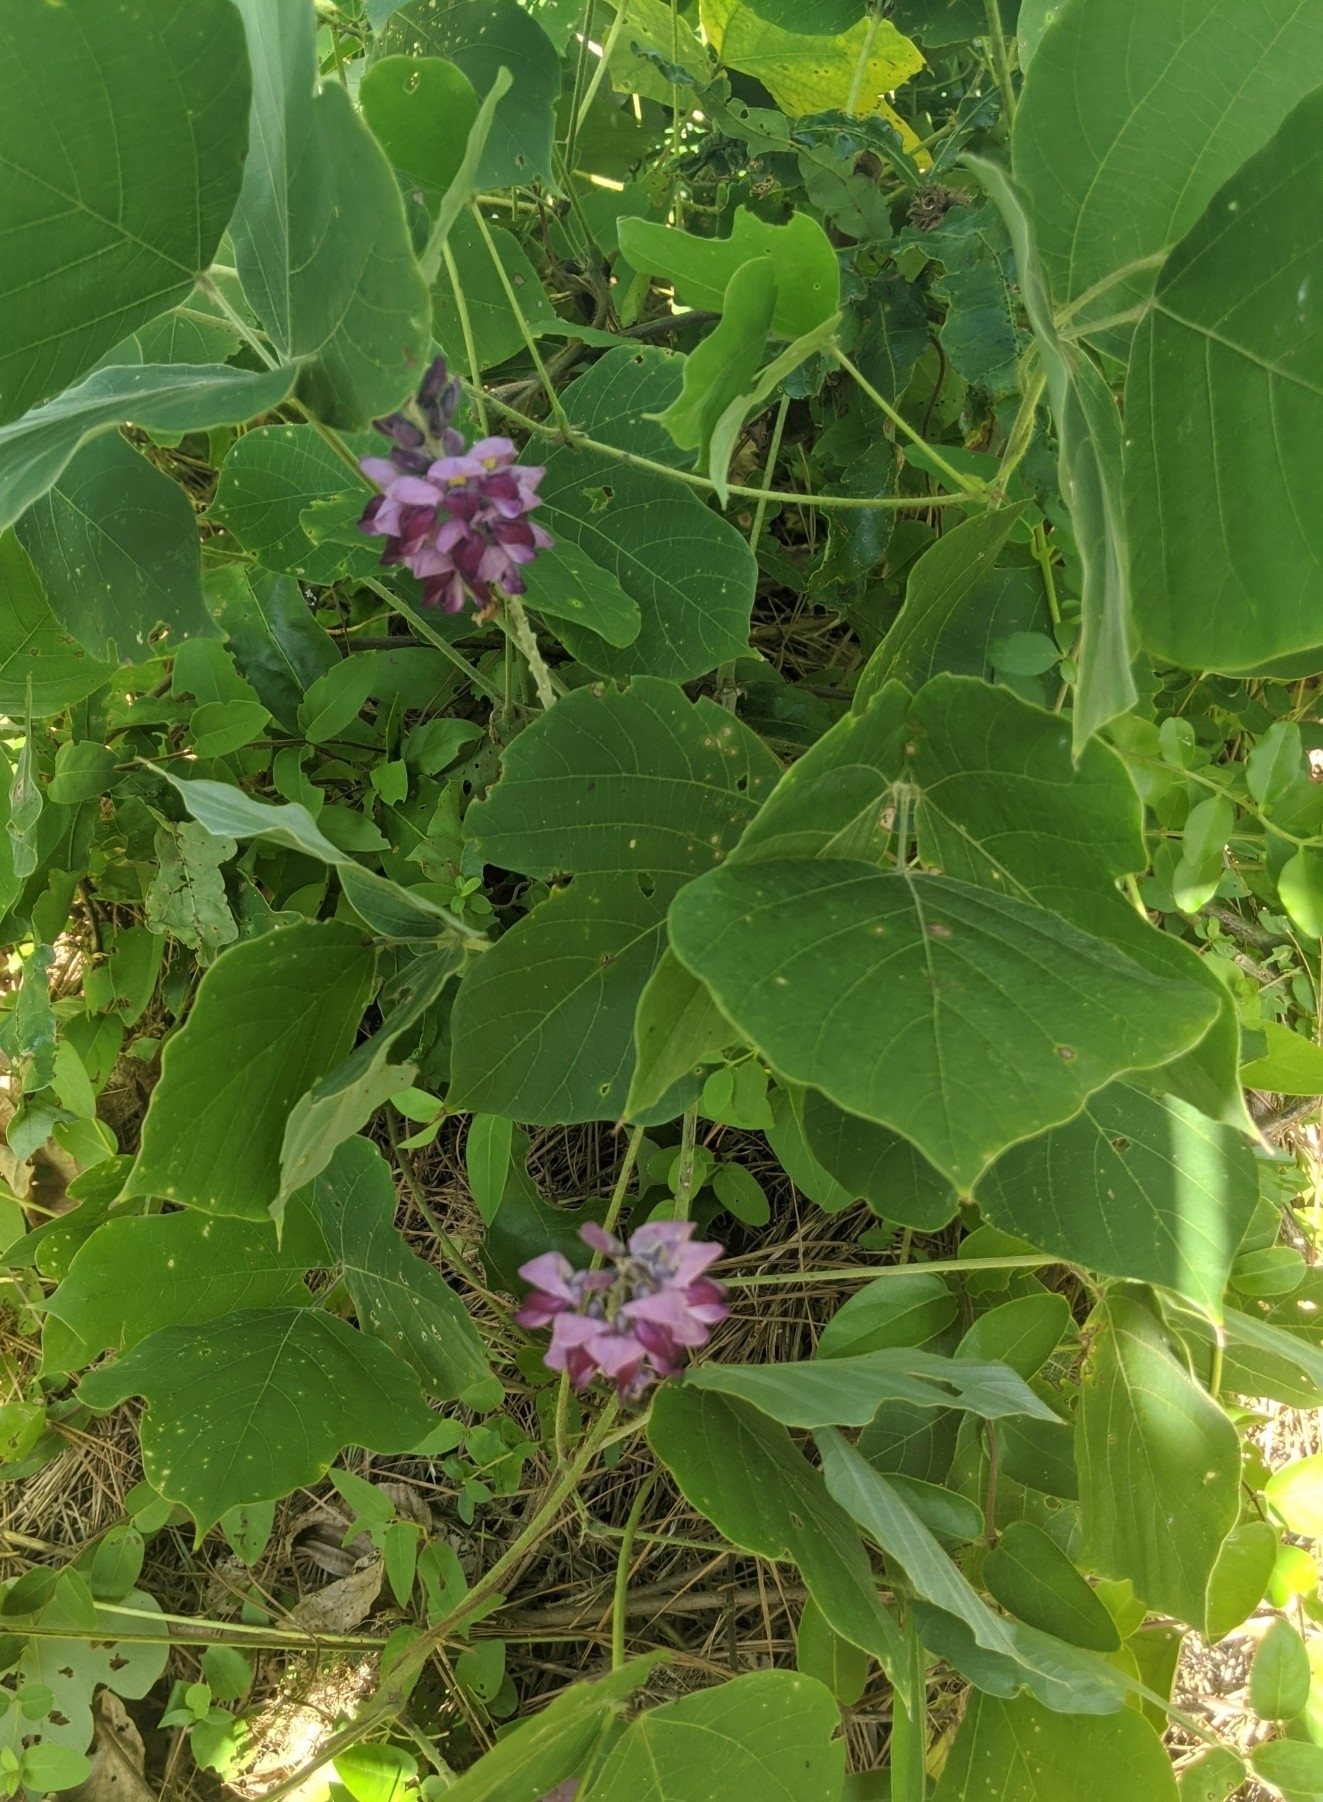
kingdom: Plantae
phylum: Tracheophyta
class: Magnoliopsida
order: Fabales
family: Fabaceae
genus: Pueraria
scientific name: Pueraria montana
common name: Kudzu
